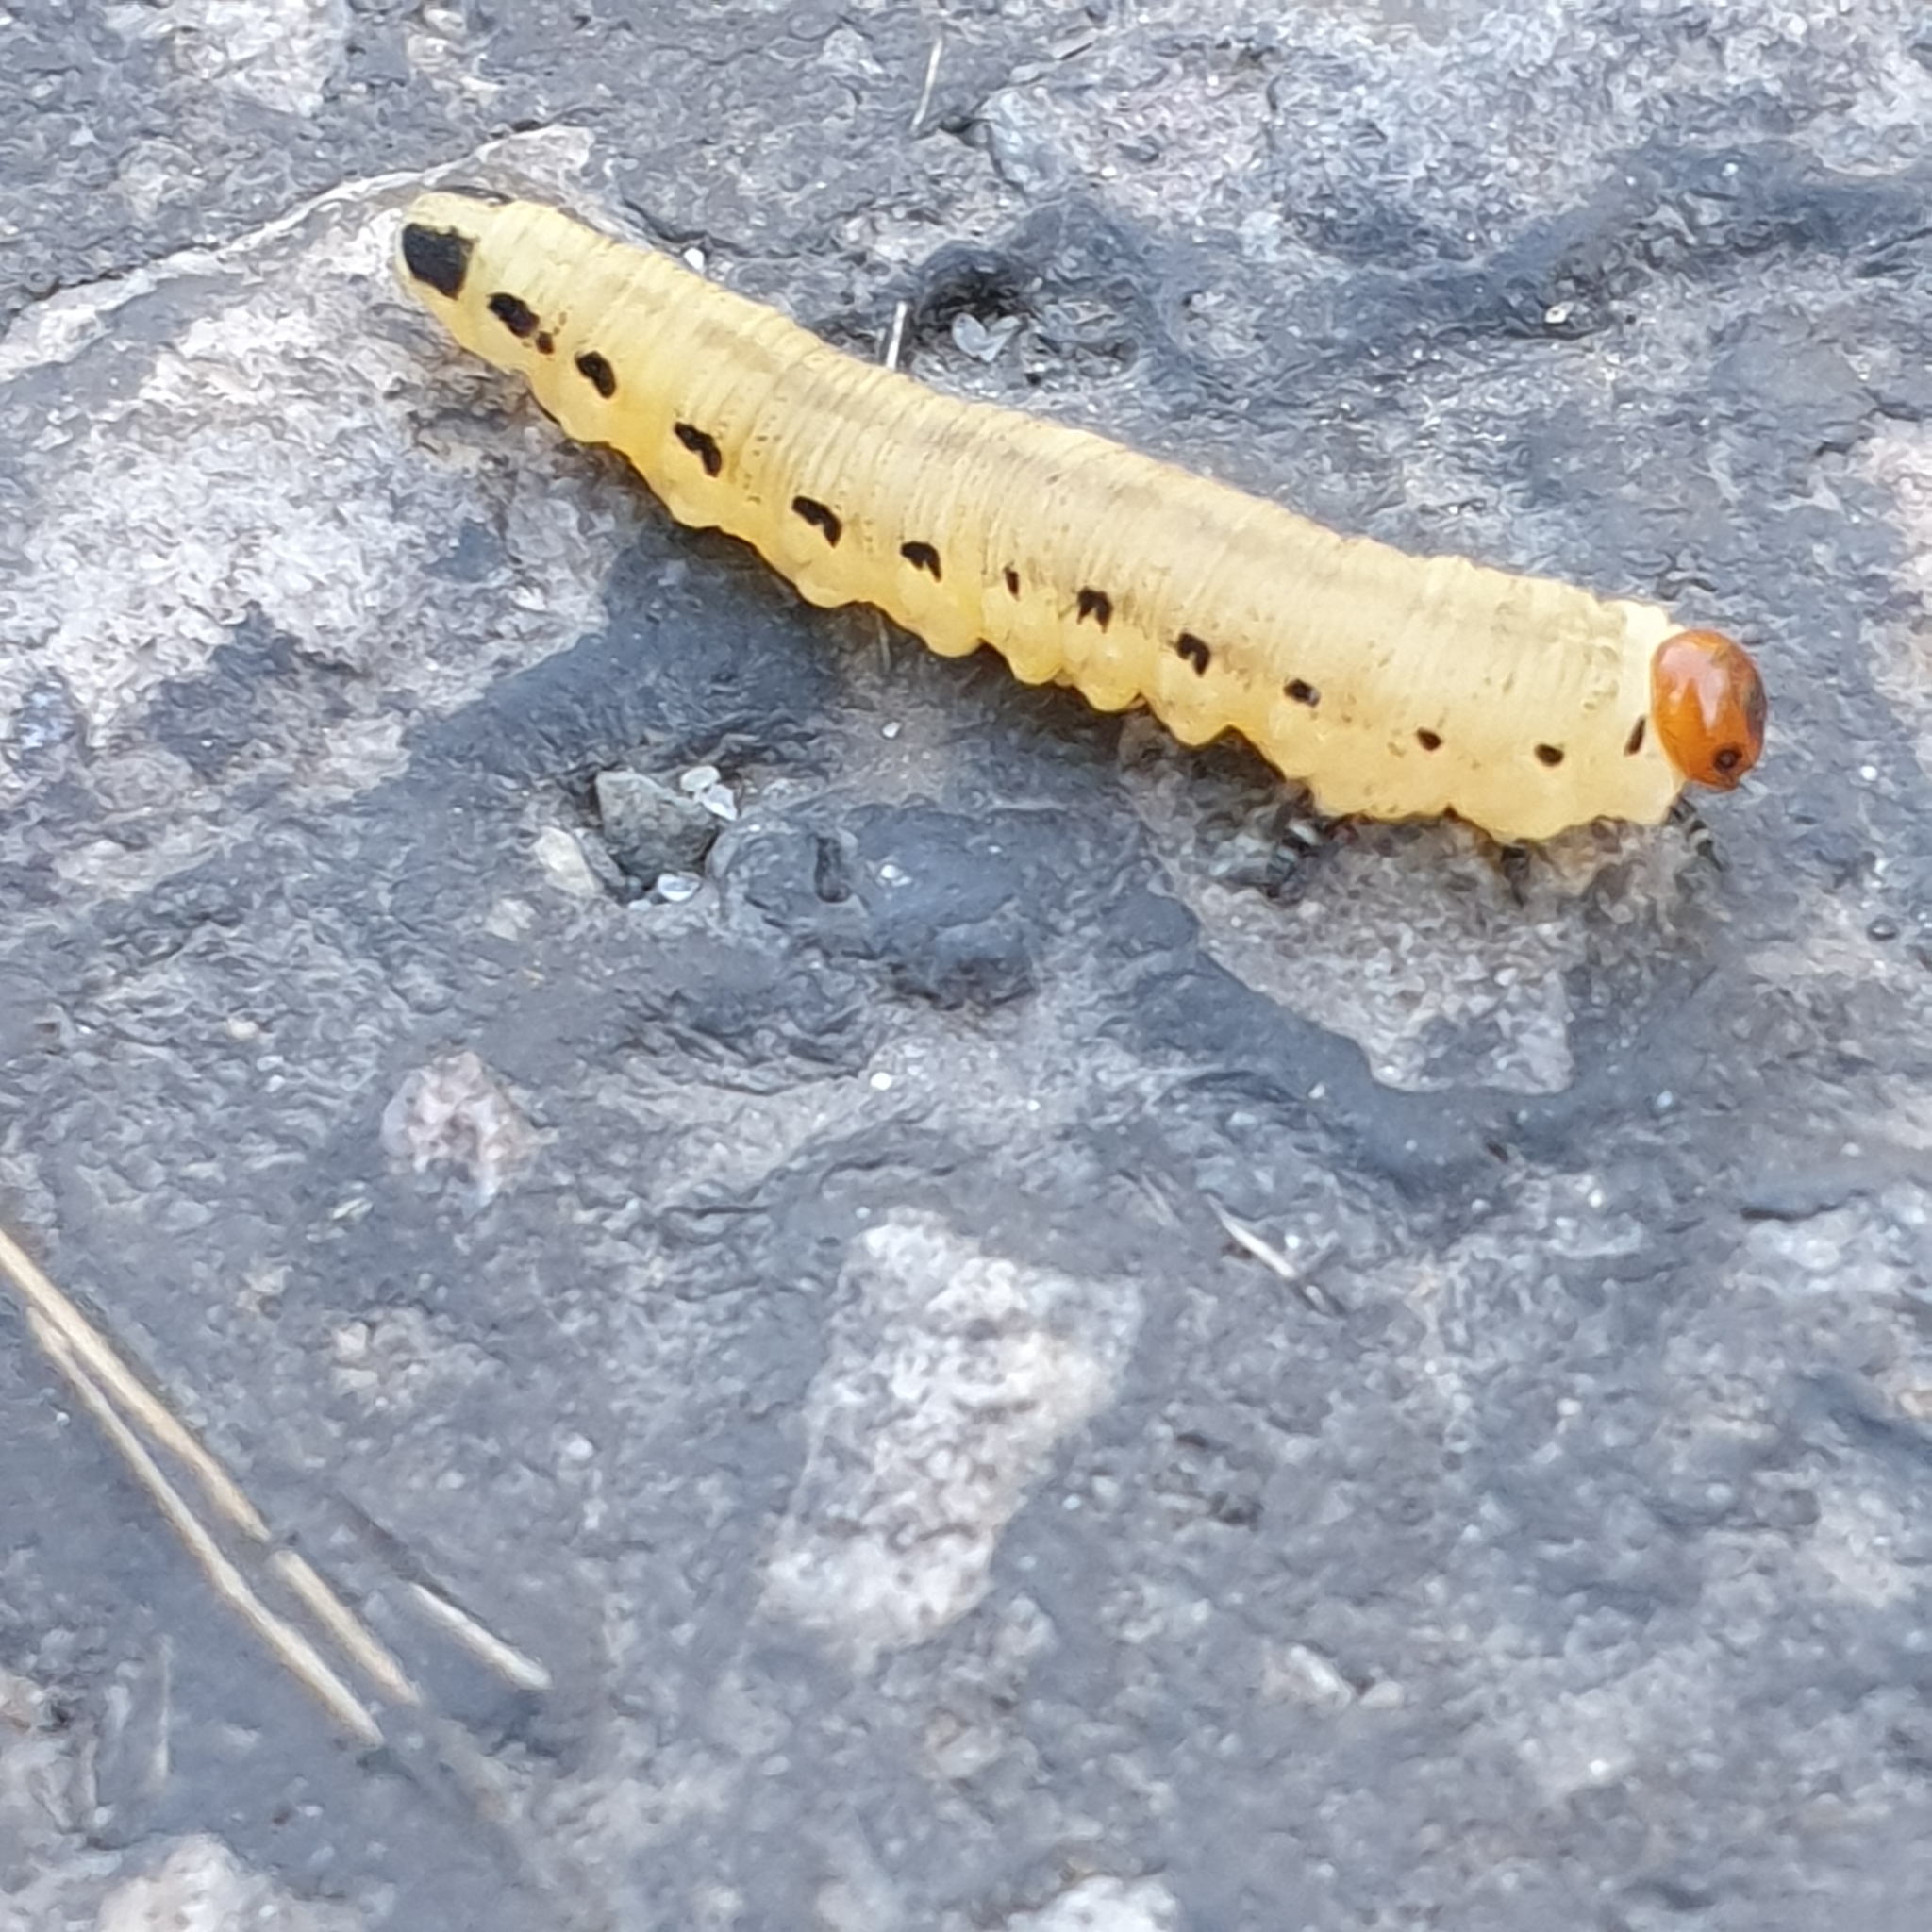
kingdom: Animalia
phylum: Arthropoda
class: Insecta
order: Hymenoptera
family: Diprionidae
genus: Diprion
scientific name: Diprion pini
